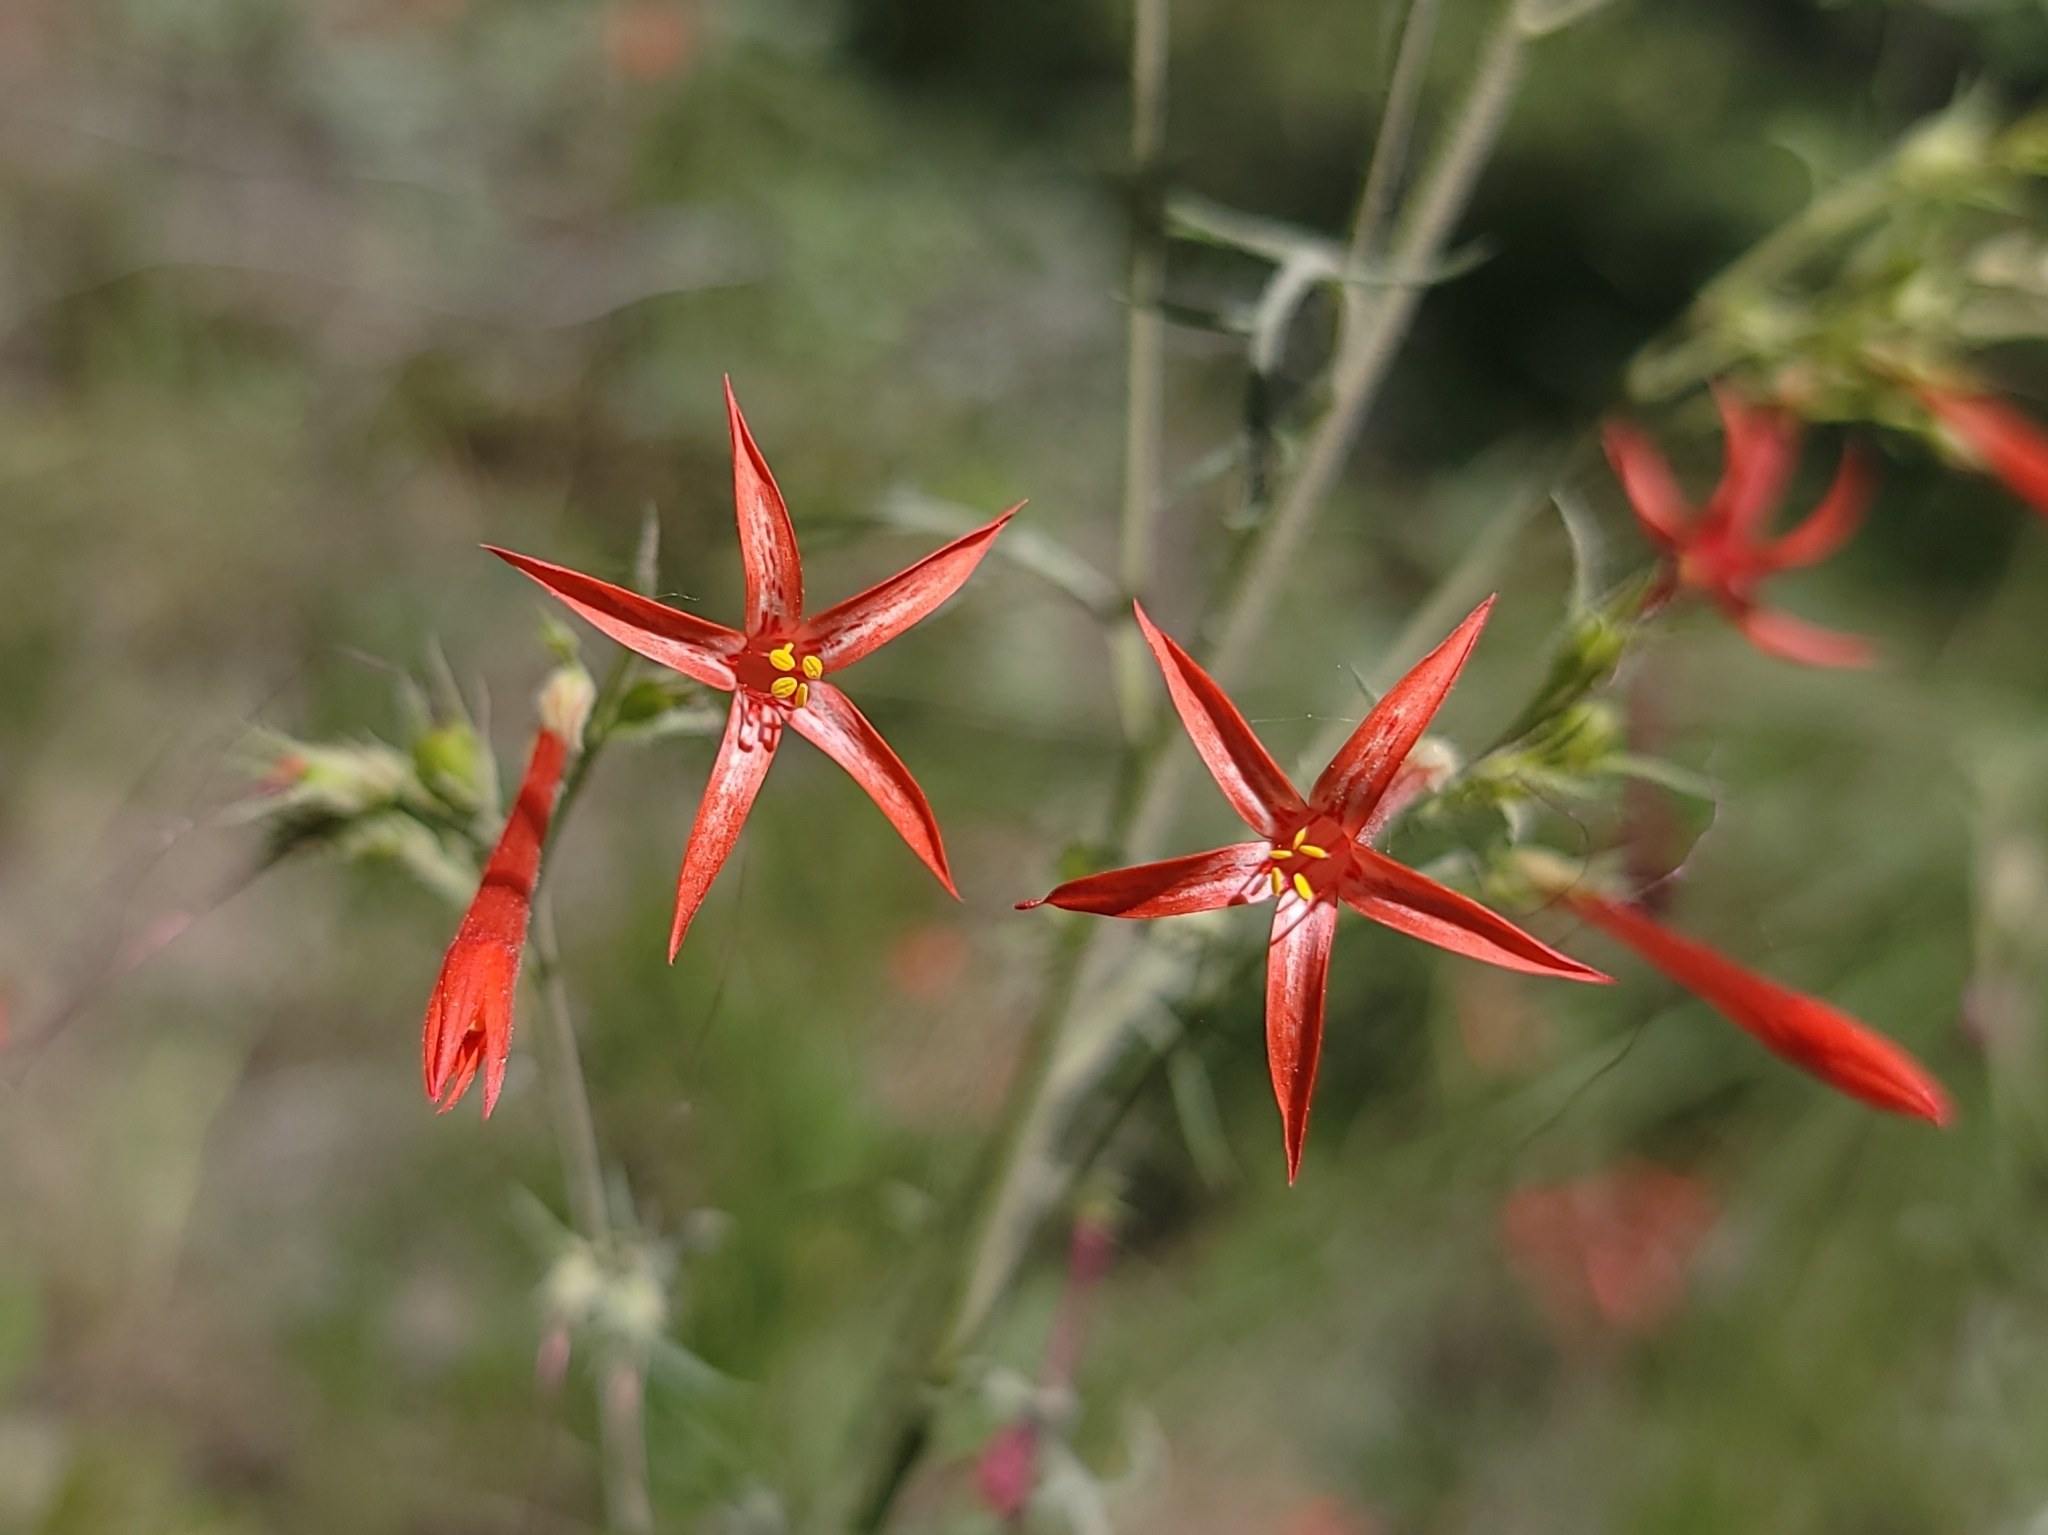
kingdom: Plantae
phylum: Tracheophyta
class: Magnoliopsida
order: Ericales
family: Polemoniaceae
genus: Ipomopsis
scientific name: Ipomopsis aggregata
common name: Scarlet gilia
